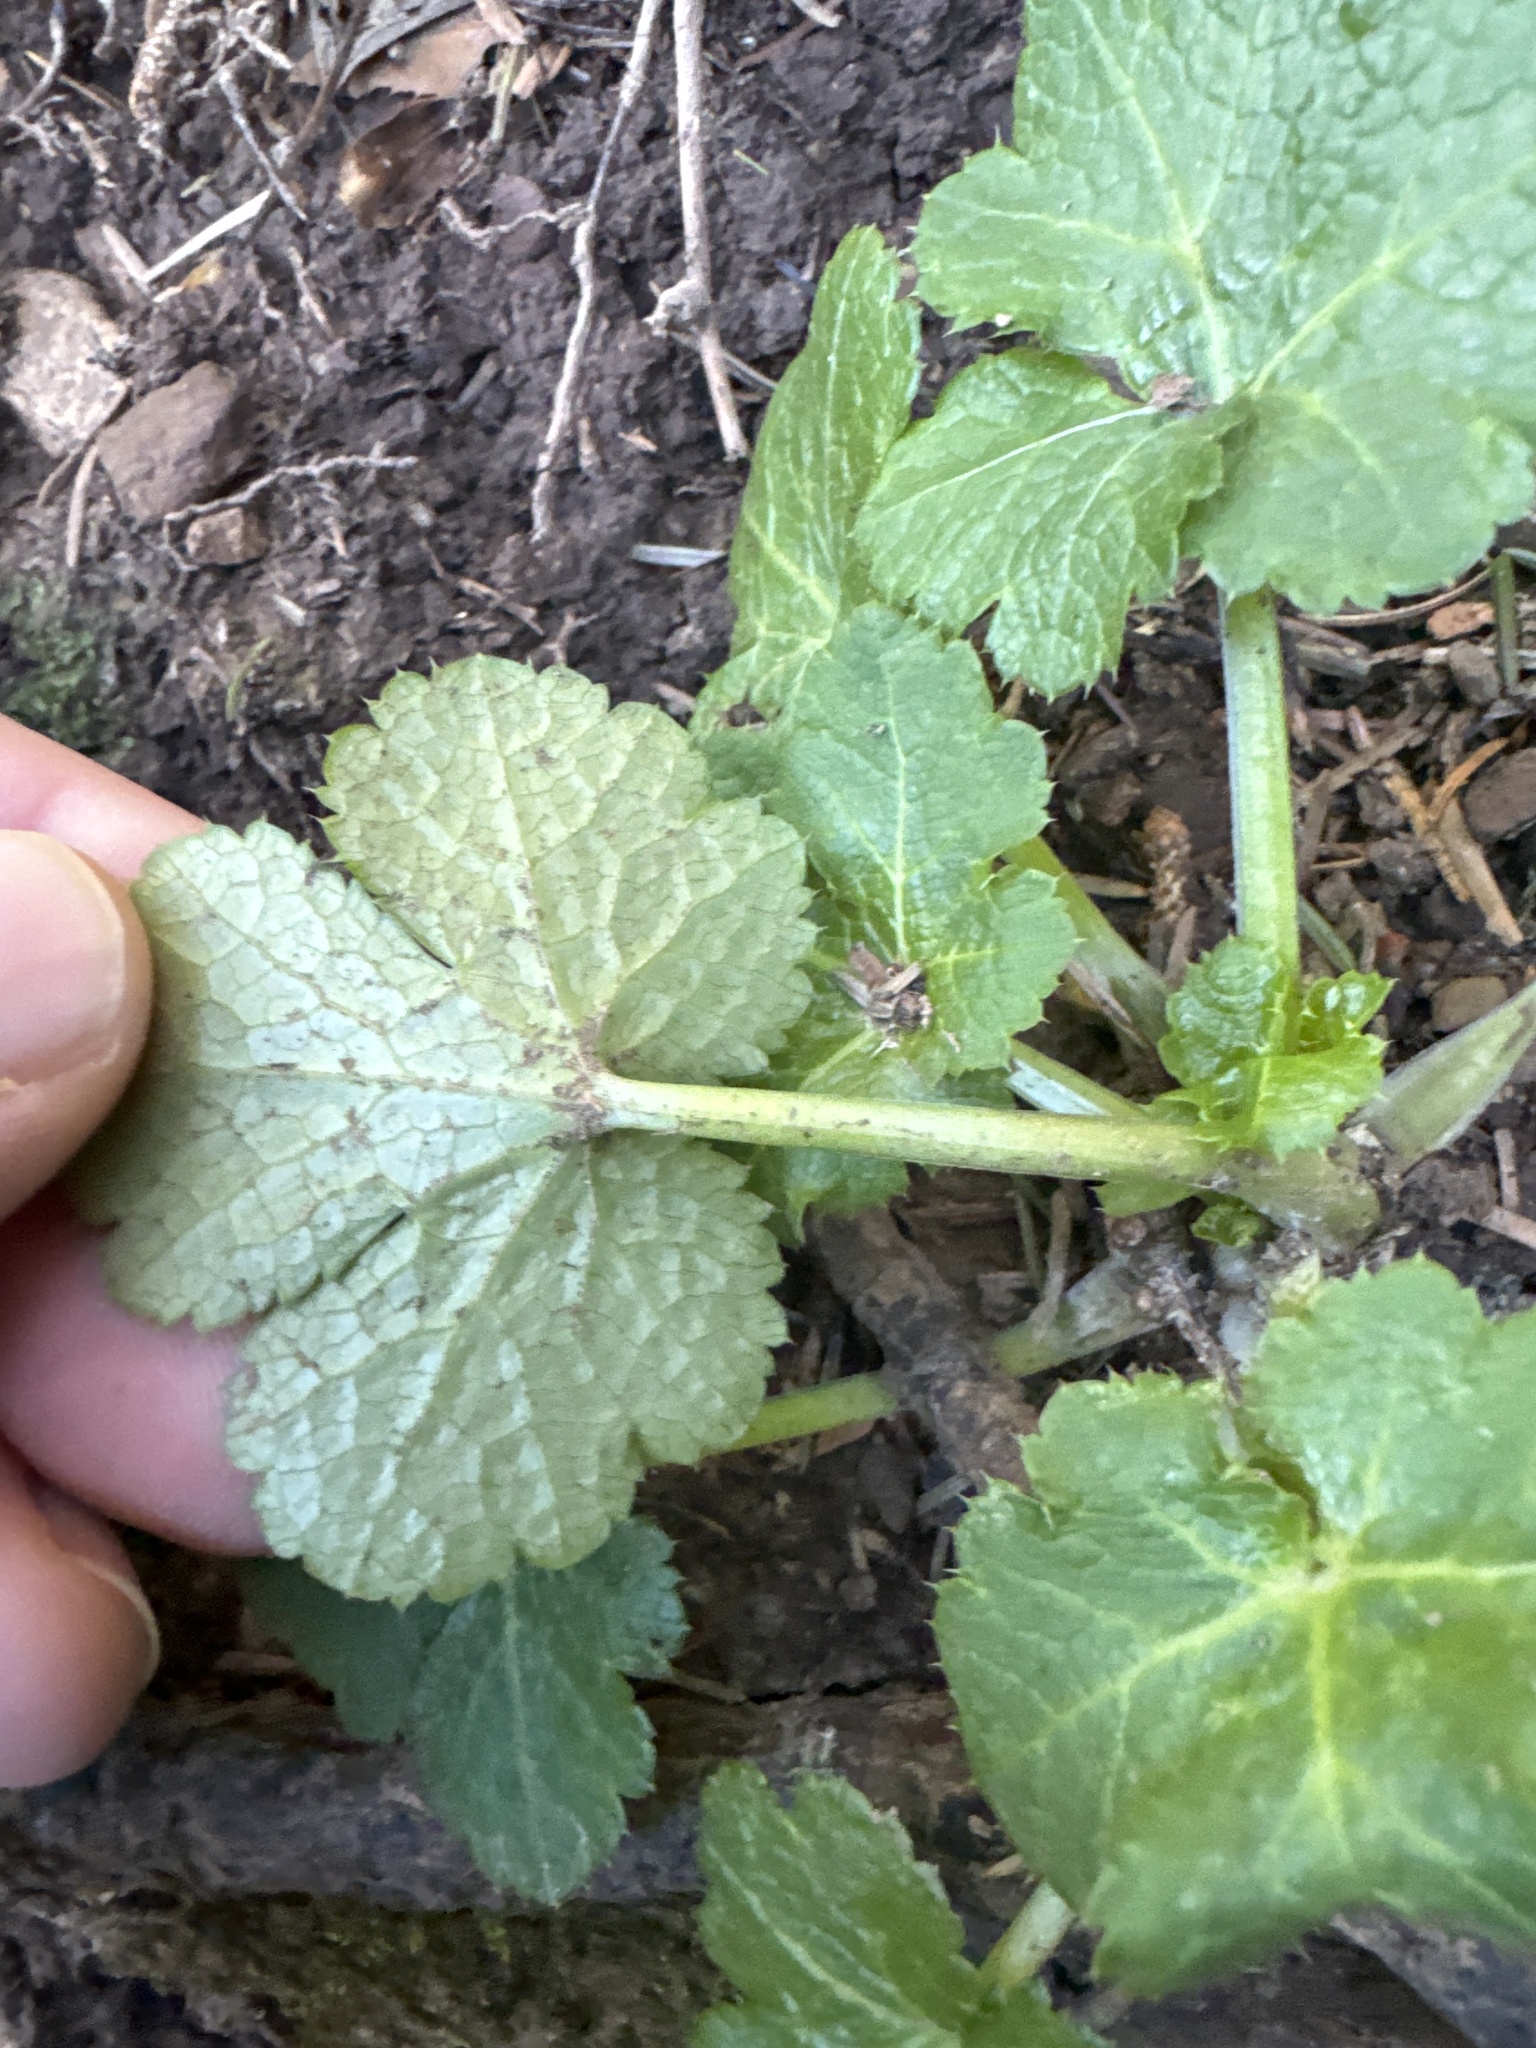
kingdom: Plantae
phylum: Tracheophyta
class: Magnoliopsida
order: Apiales
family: Apiaceae
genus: Sanicula
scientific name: Sanicula crassicaulis
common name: Western snakeroot
